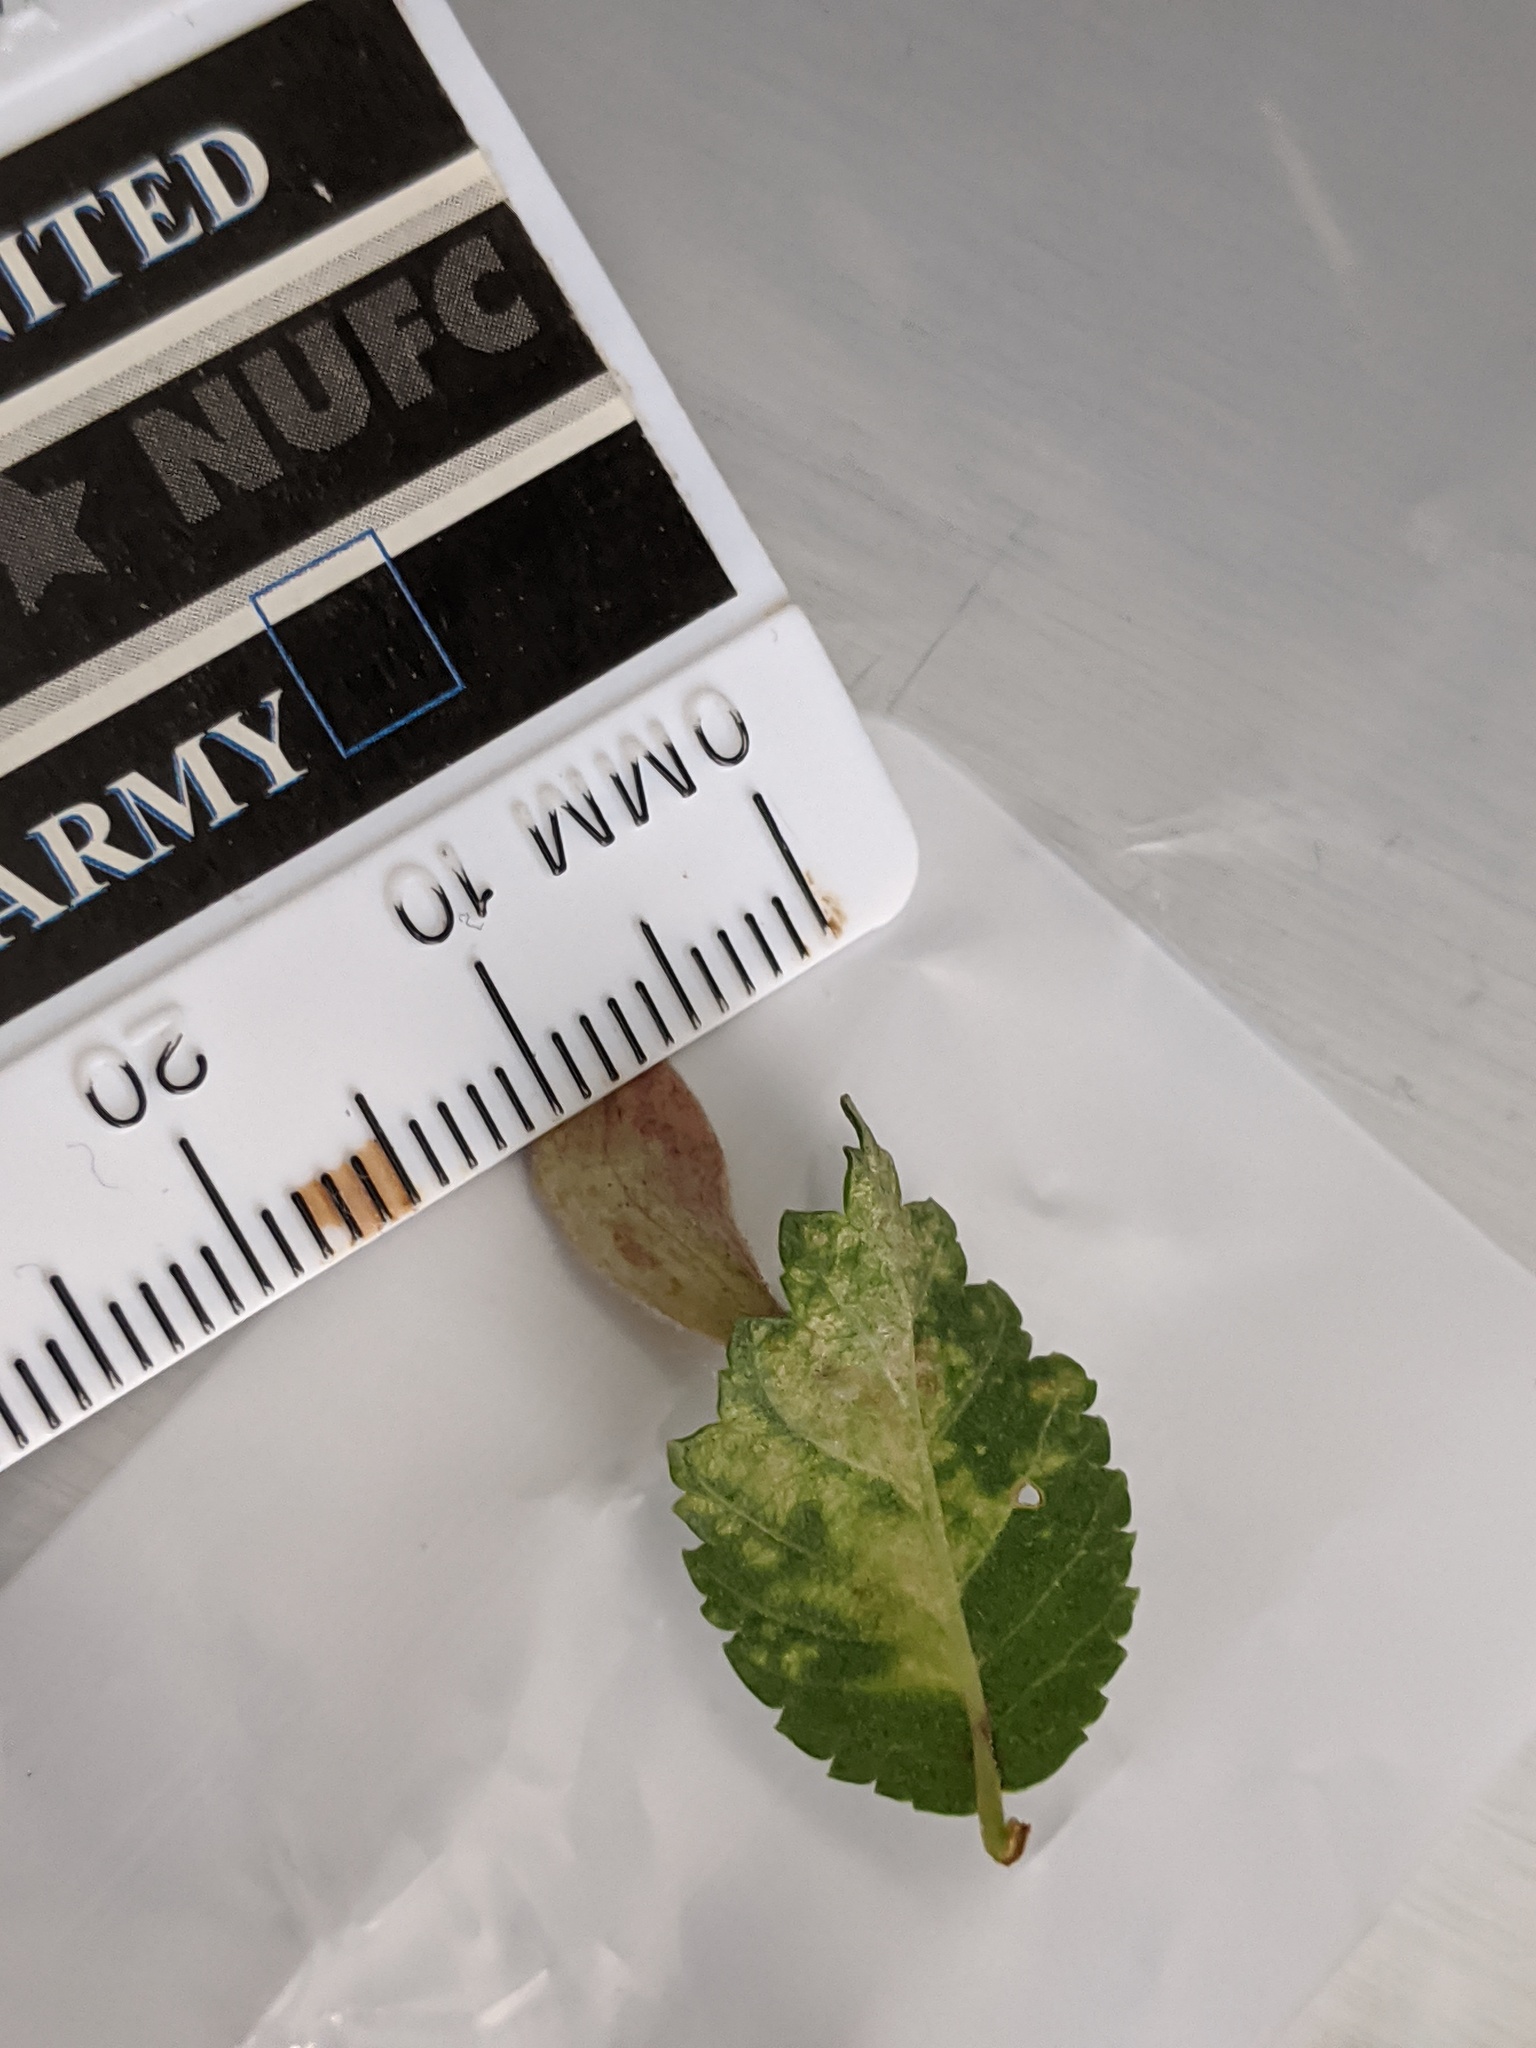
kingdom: Animalia
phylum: Arthropoda
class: Insecta
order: Hemiptera
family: Aphididae
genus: Tetraneura
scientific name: Tetraneura nigriabdominalis
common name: Aphid
